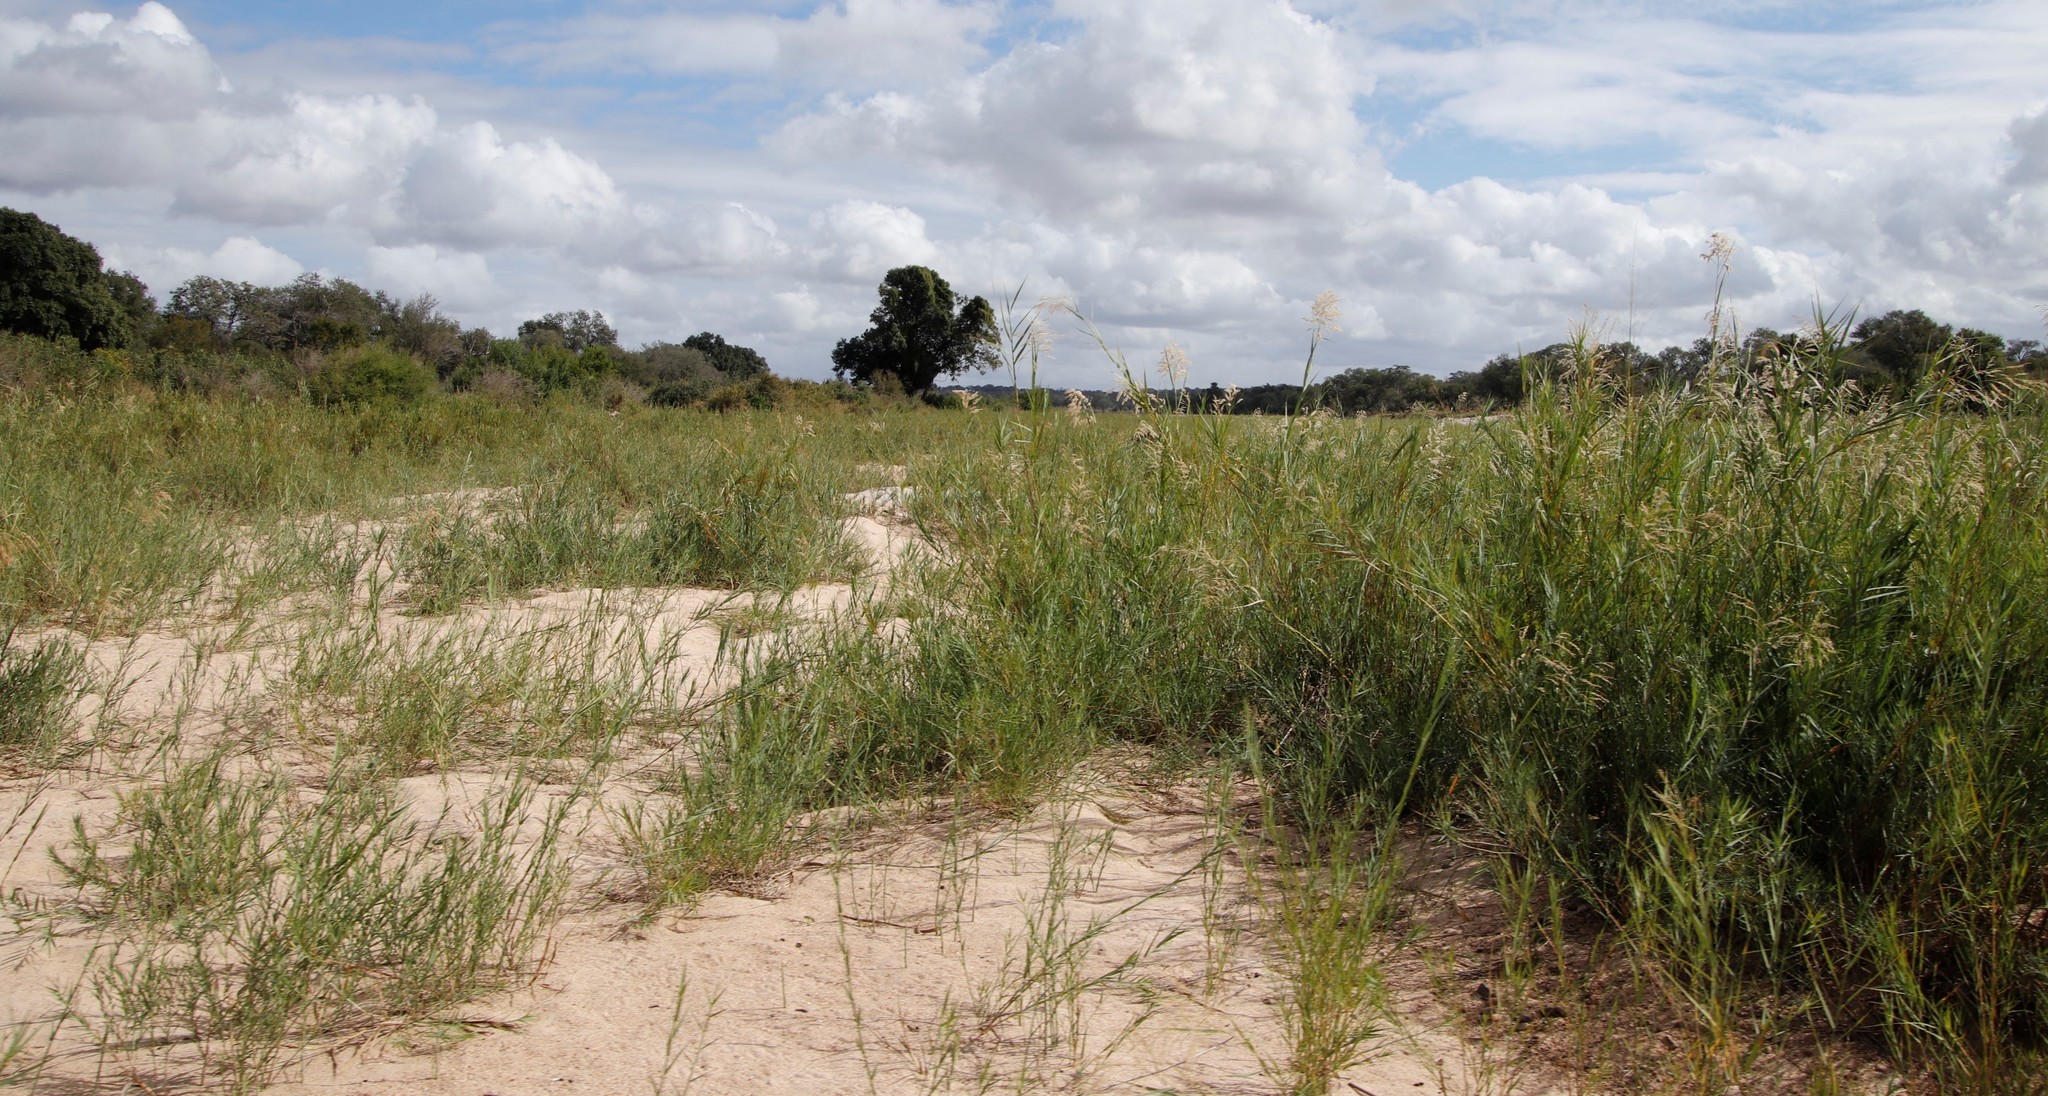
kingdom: Plantae
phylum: Tracheophyta
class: Liliopsida
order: Poales
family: Poaceae
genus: Phragmites
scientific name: Phragmites mauritianus
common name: Reed grass
